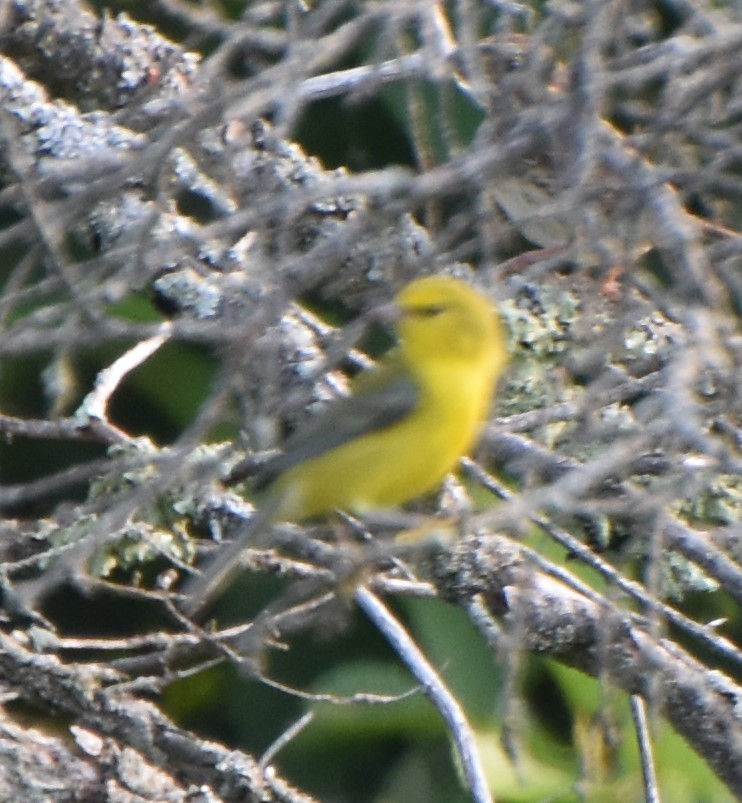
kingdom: Animalia
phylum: Chordata
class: Aves
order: Passeriformes
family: Parulidae
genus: Vermivora
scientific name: Vermivora cyanoptera
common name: Blue-winged warbler
